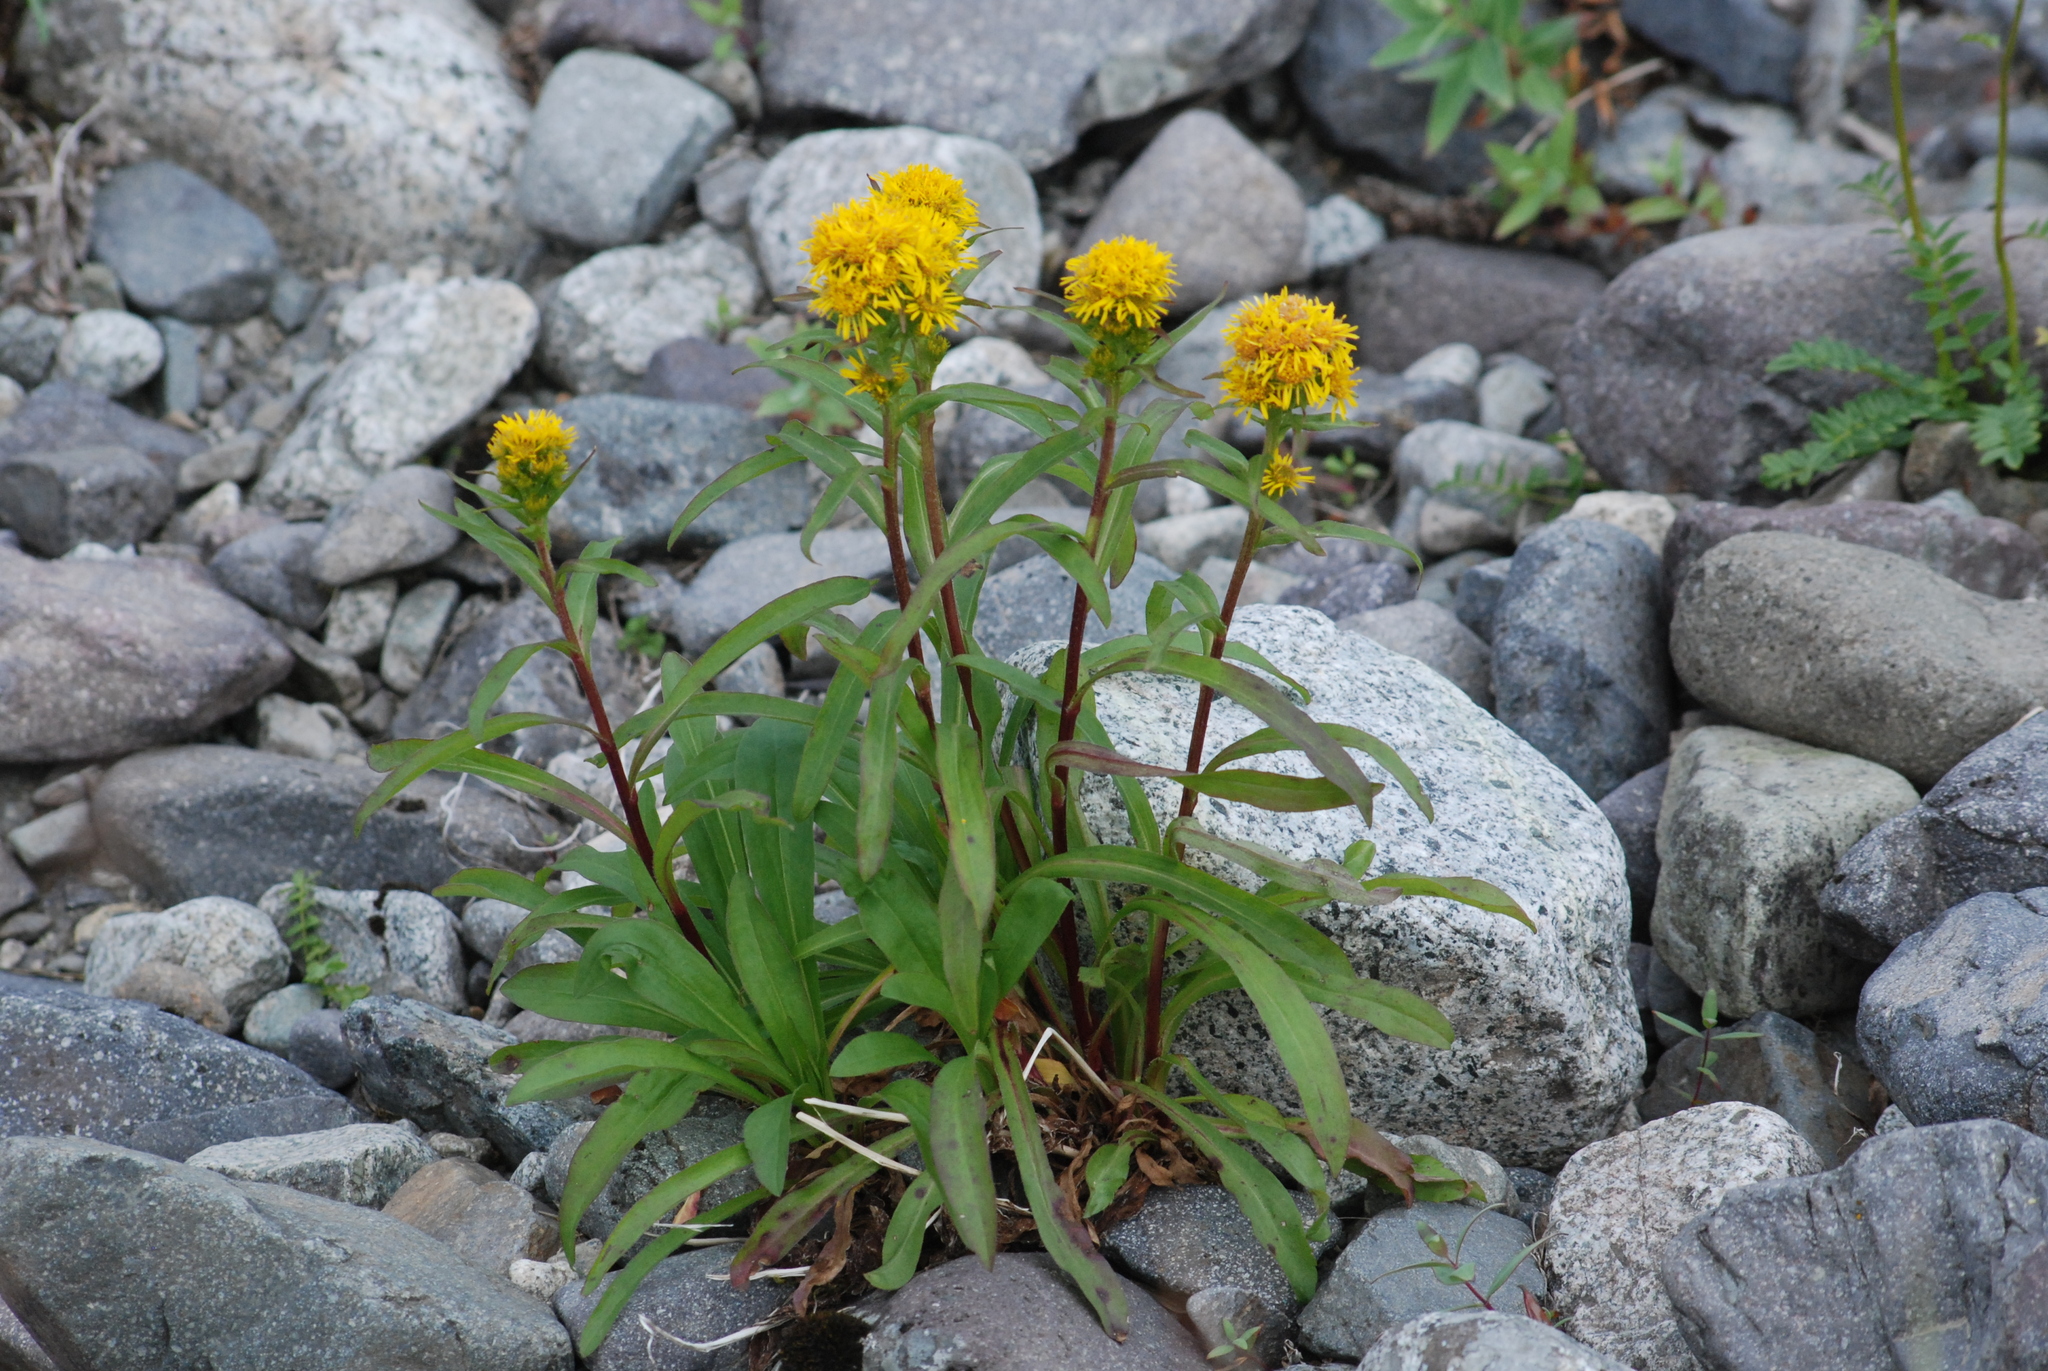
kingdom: Plantae
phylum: Tracheophyta
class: Magnoliopsida
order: Asterales
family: Asteraceae
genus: Solidago
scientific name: Solidago compacta
